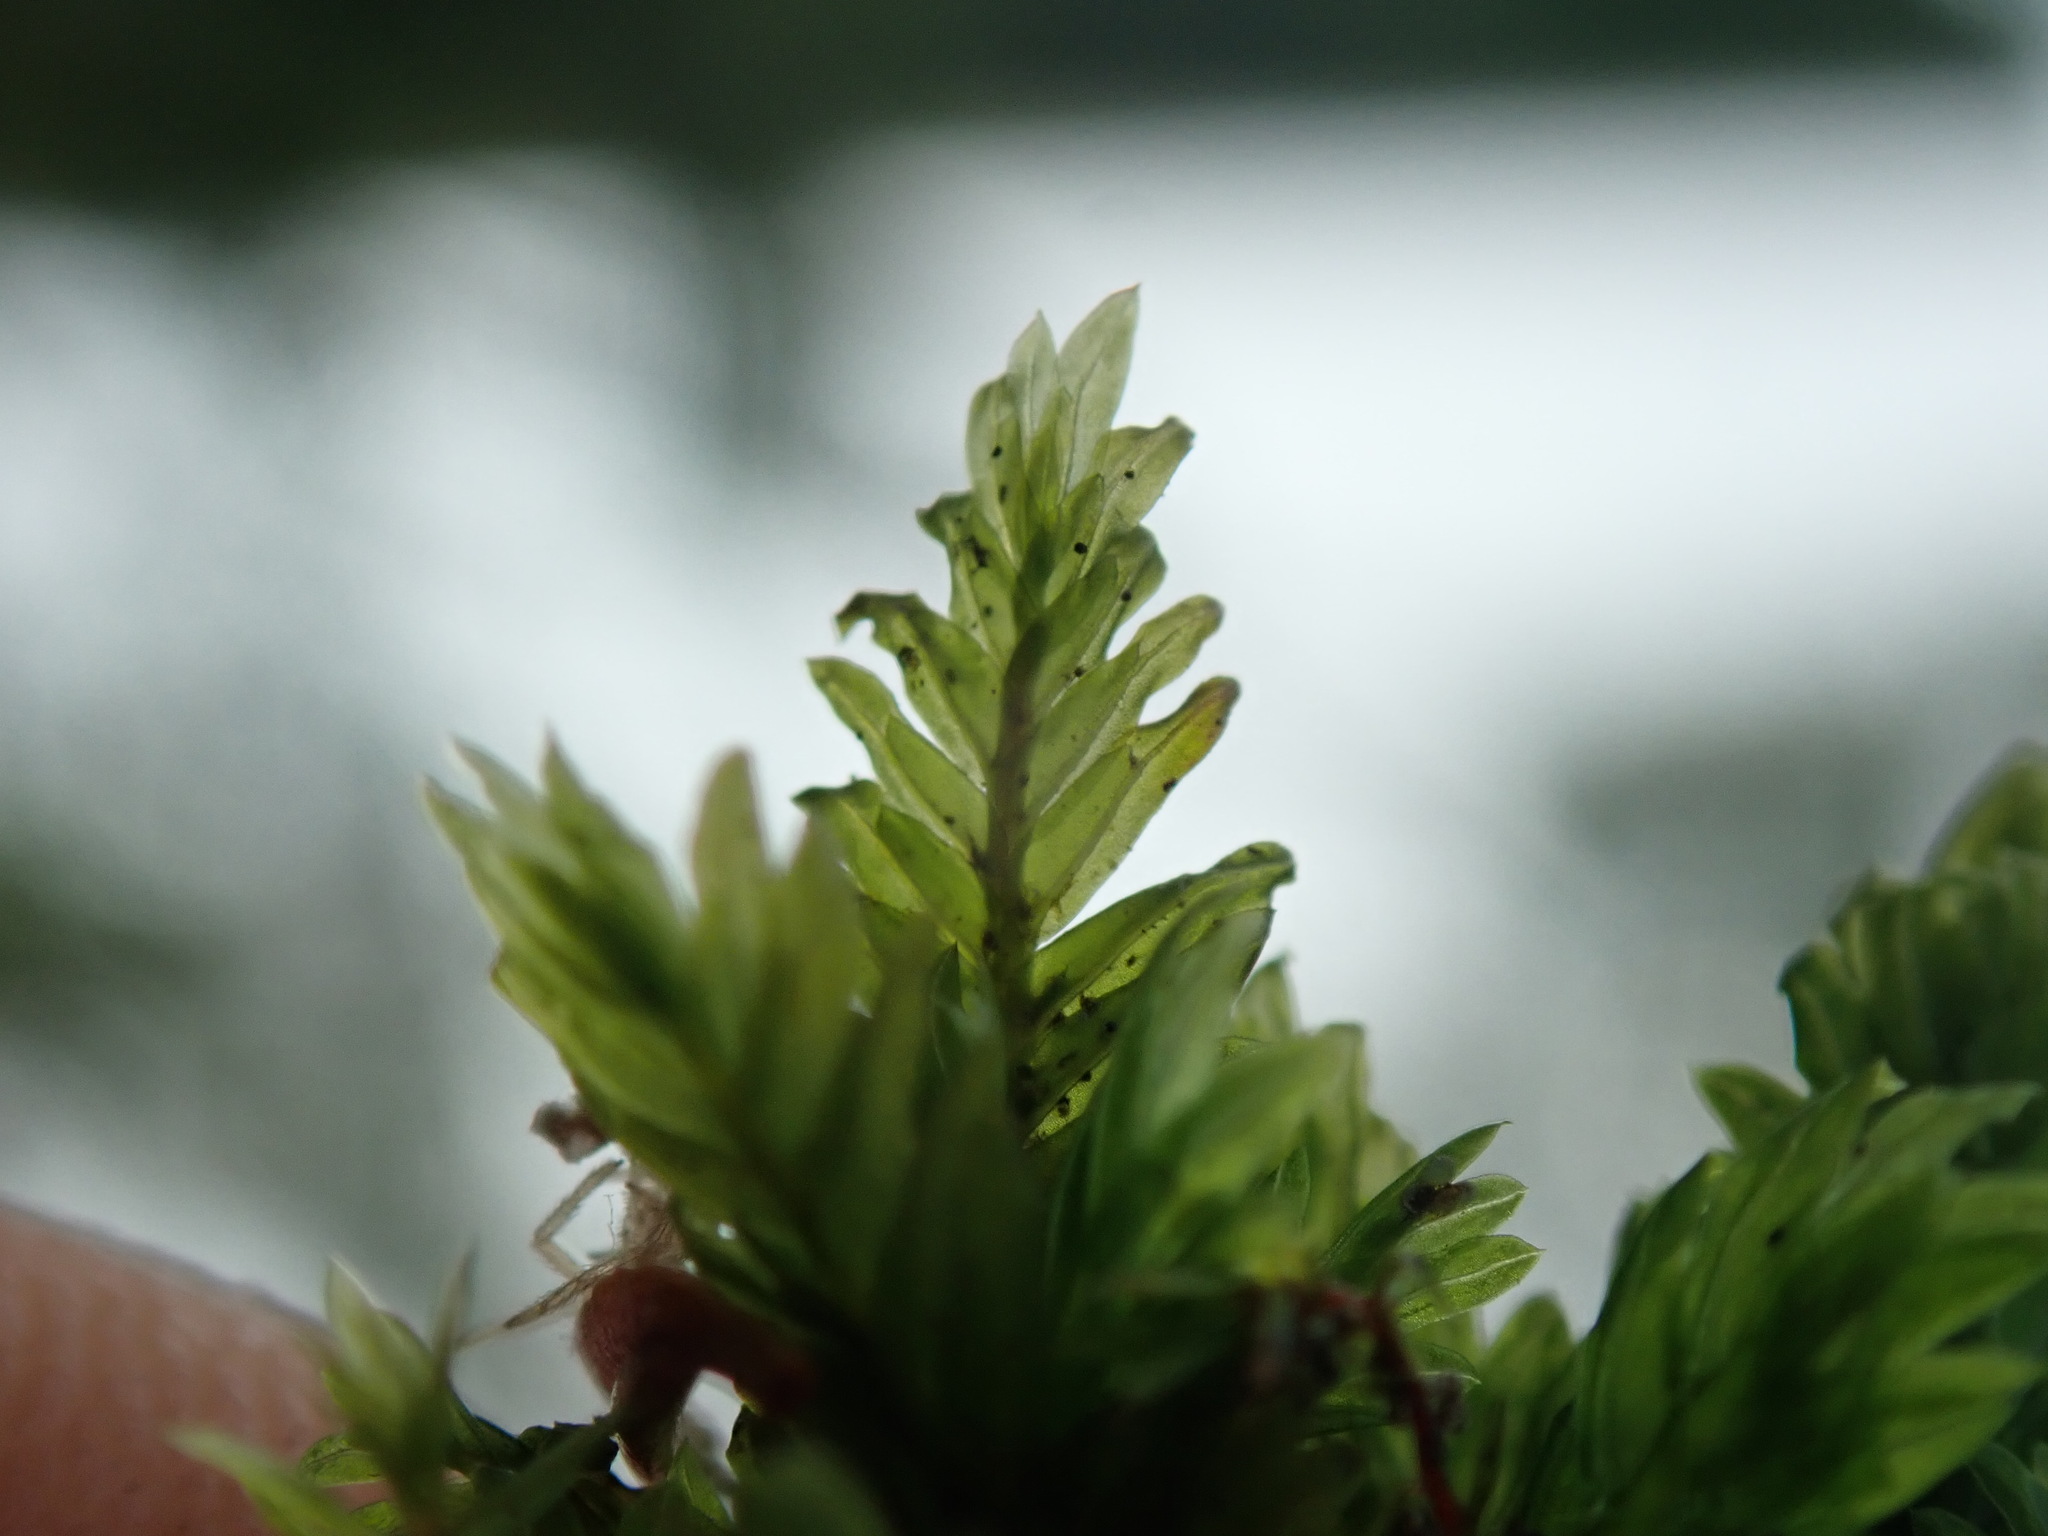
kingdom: Plantae
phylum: Bryophyta
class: Bryopsida
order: Dicranales
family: Fissidentaceae
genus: Fissidens
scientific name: Fissidens adianthoides
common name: Maidenhair pocket moss
